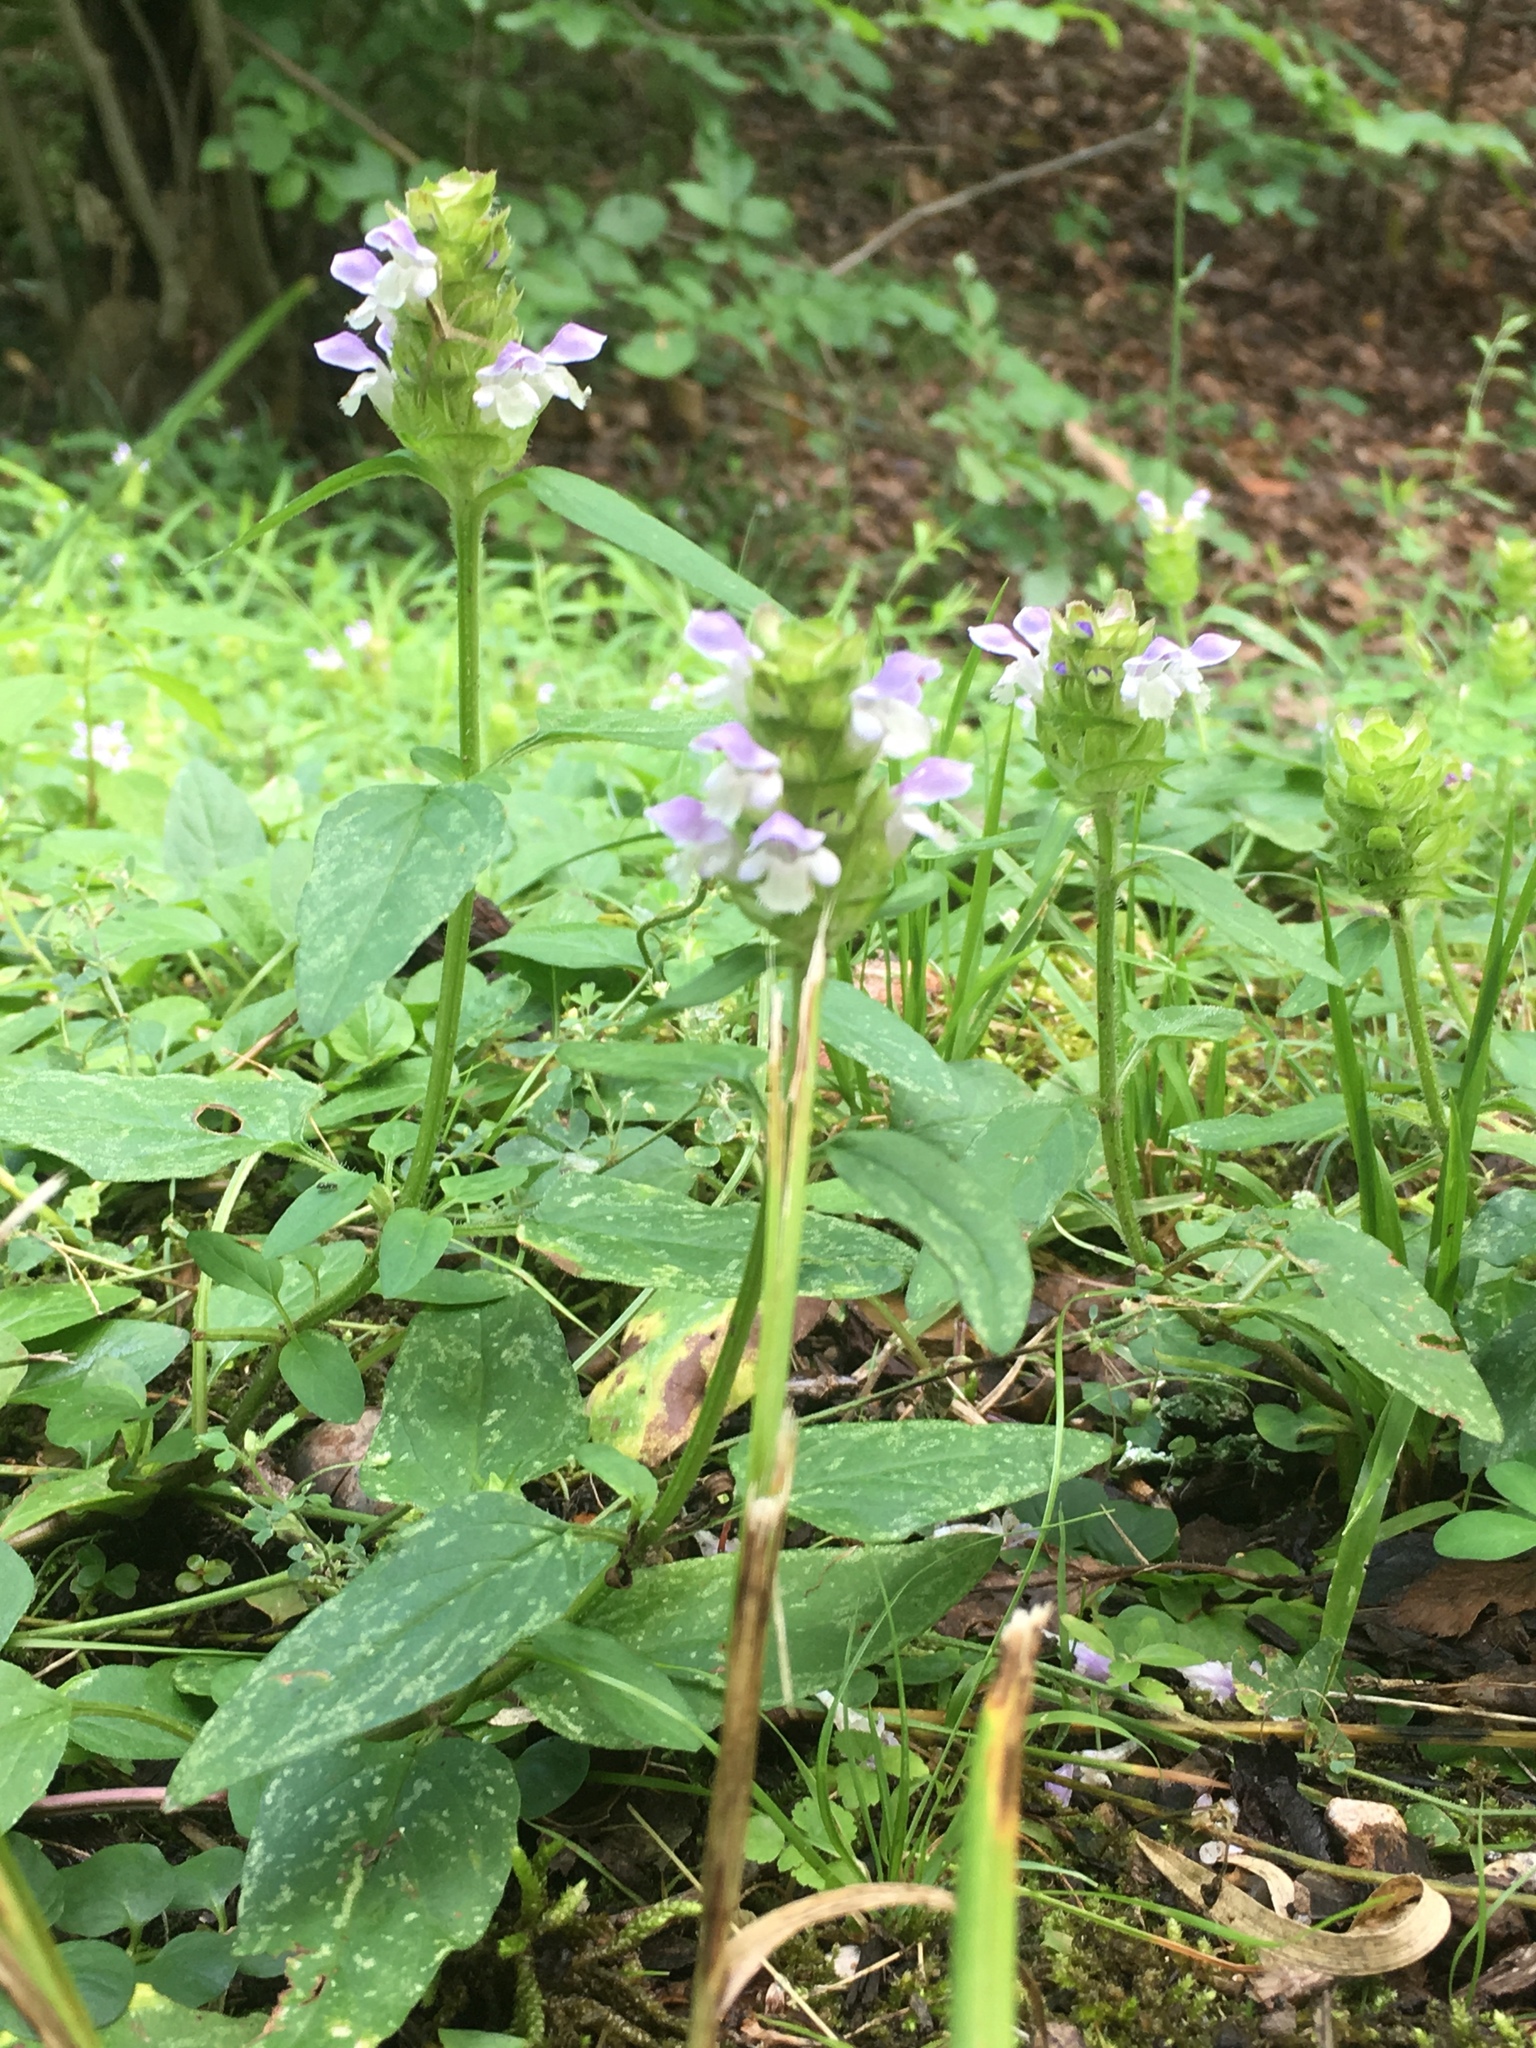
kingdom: Plantae
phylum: Tracheophyta
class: Magnoliopsida
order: Lamiales
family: Lamiaceae
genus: Prunella
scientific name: Prunella vulgaris
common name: Heal-all
